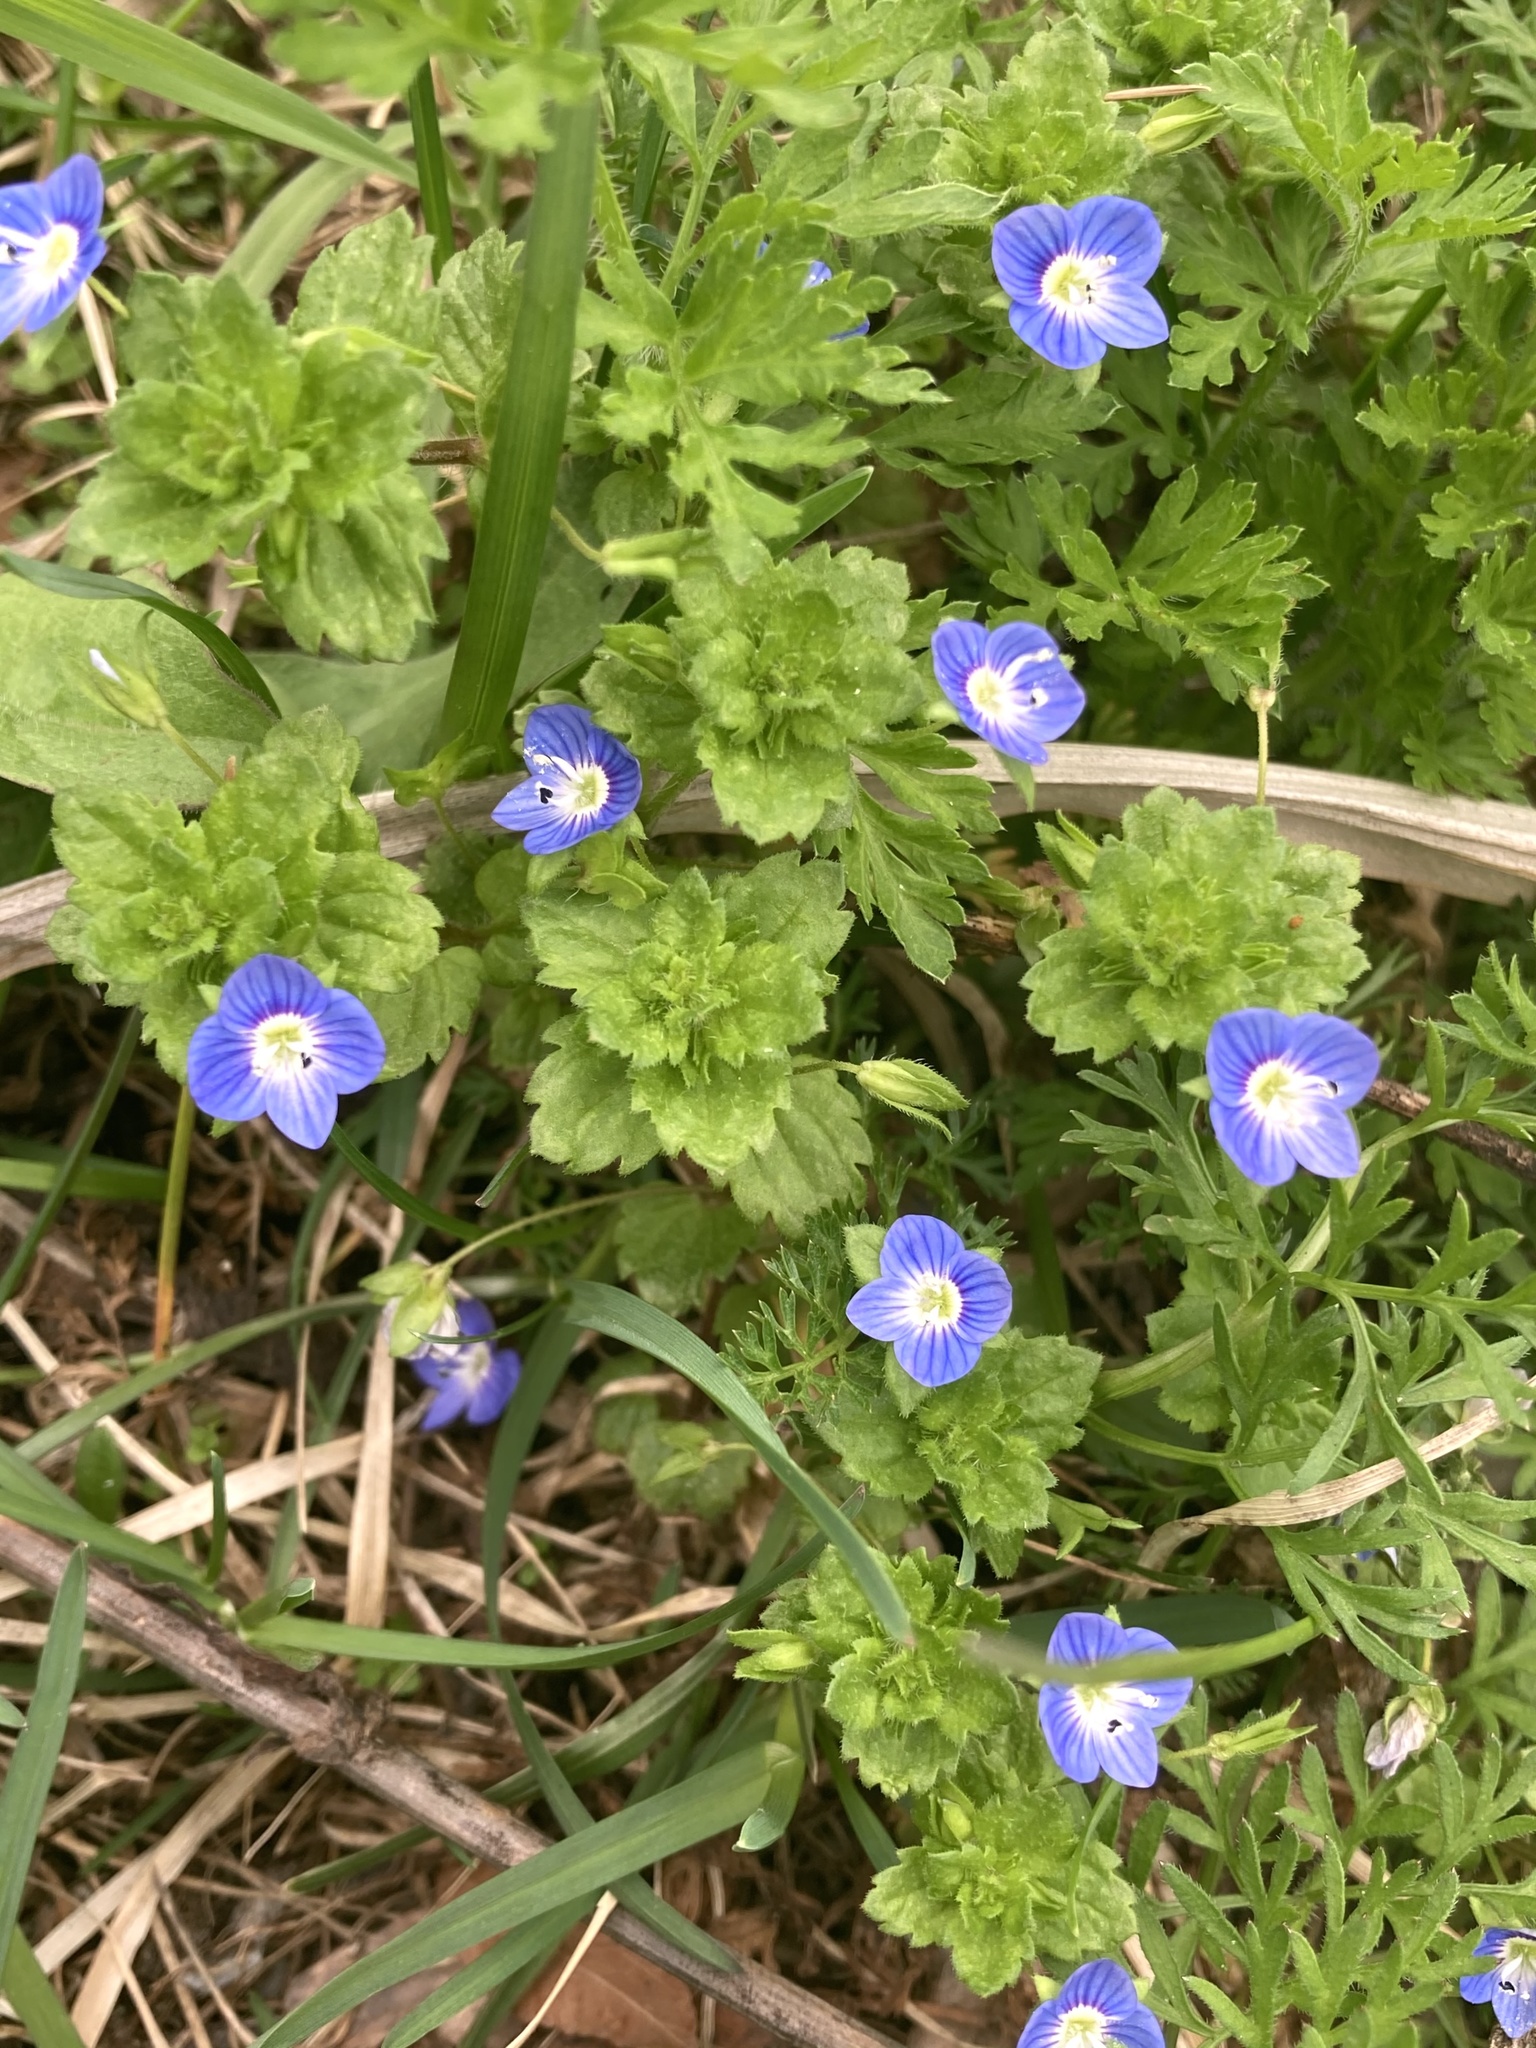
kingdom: Plantae
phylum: Tracheophyta
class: Magnoliopsida
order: Lamiales
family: Plantaginaceae
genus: Veronica
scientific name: Veronica persica
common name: Common field-speedwell
